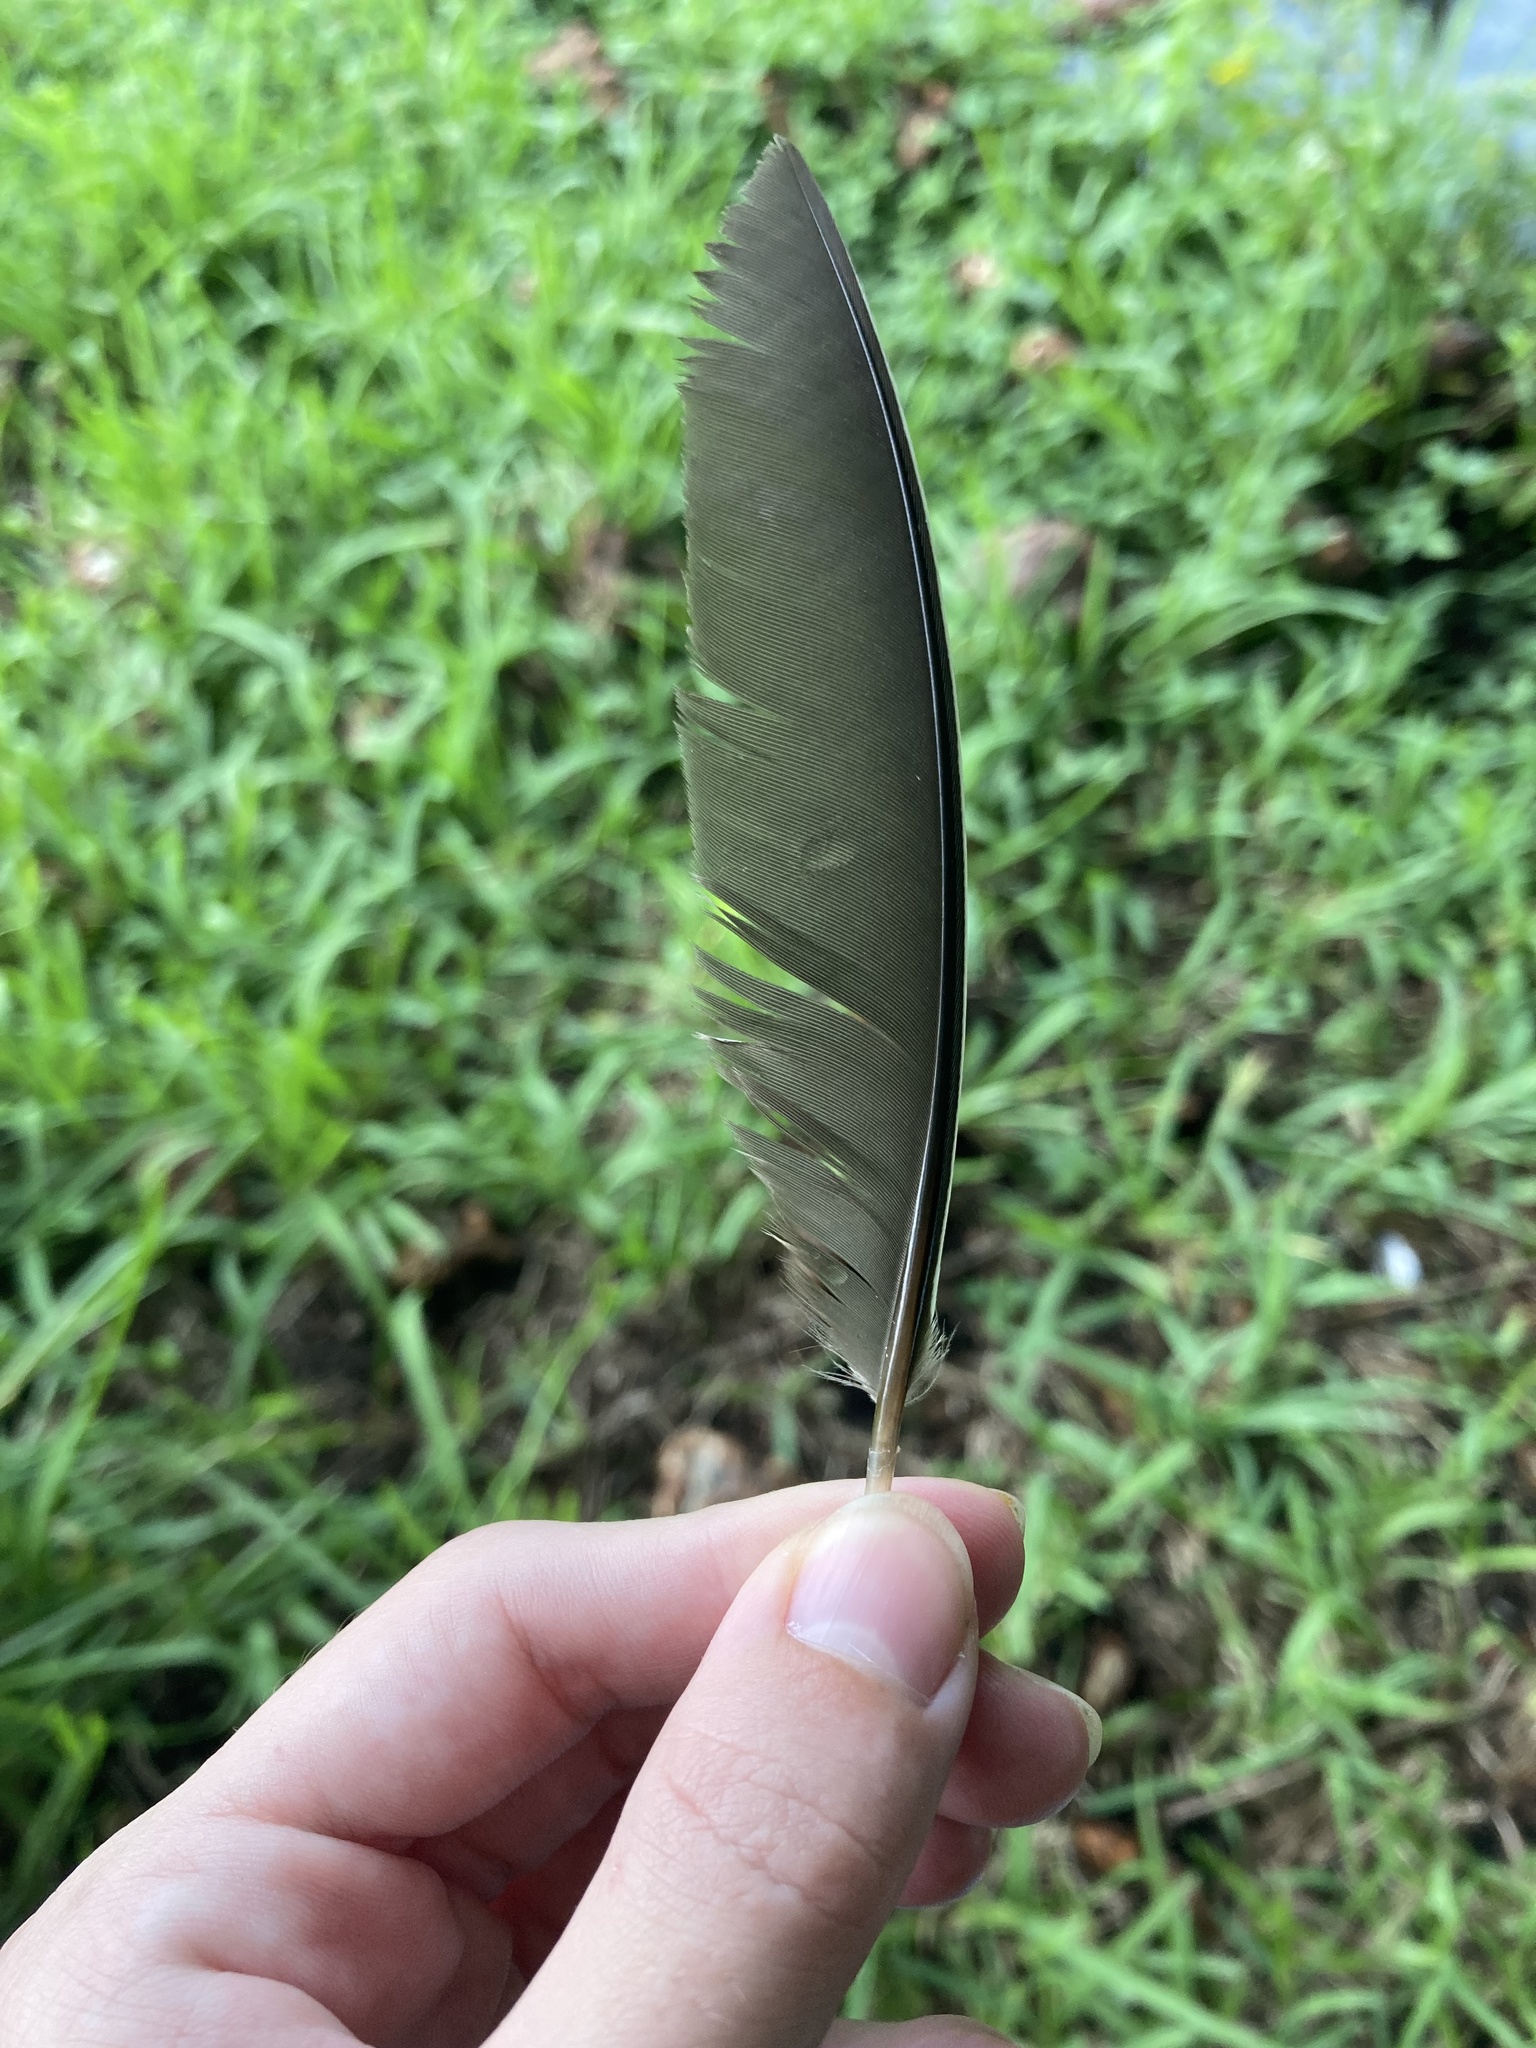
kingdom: Animalia
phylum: Chordata
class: Aves
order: Gruiformes
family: Rallidae
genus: Gallinula
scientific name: Gallinula chloropus
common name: Common moorhen
